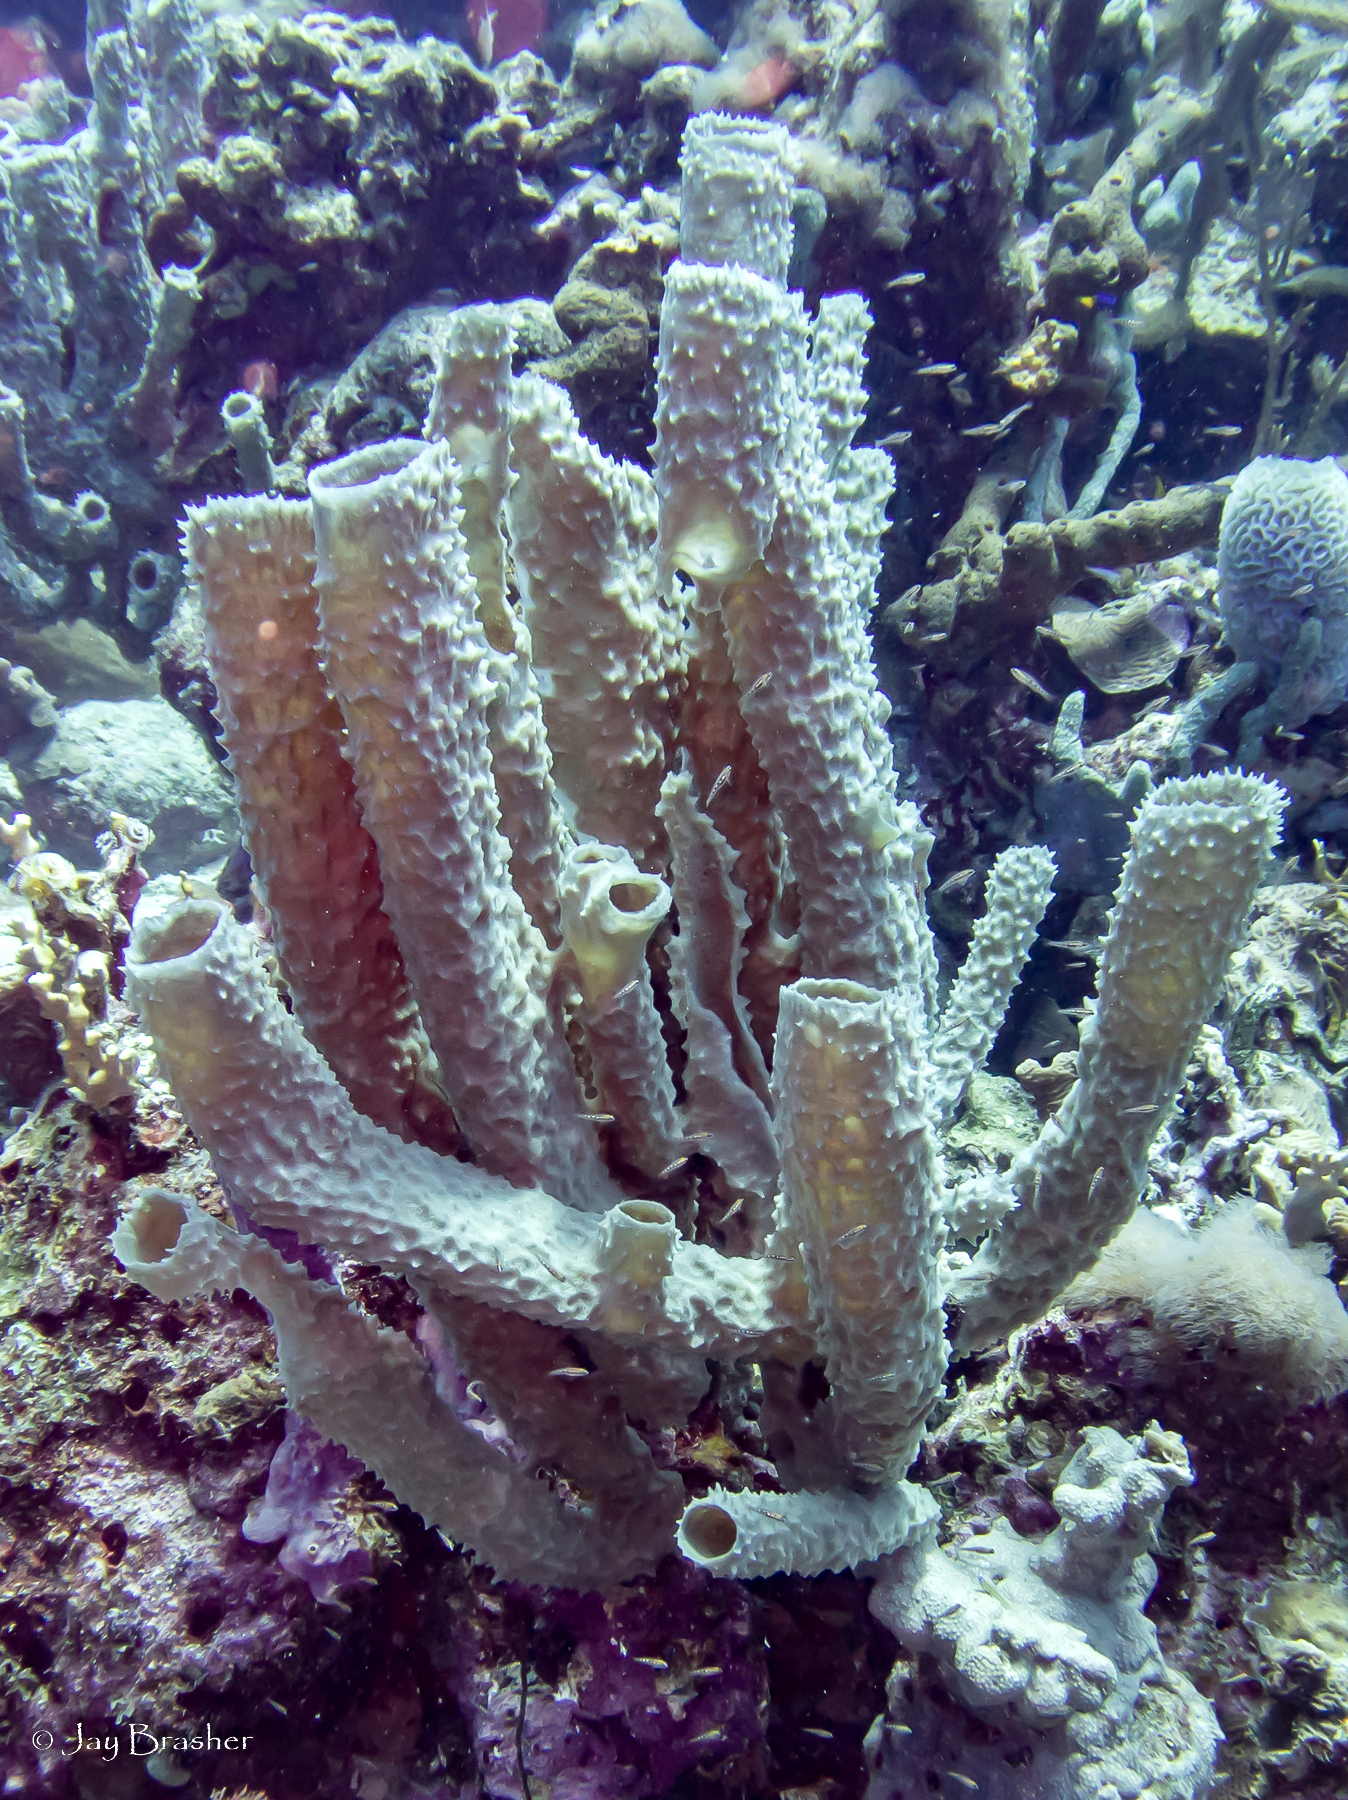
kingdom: Animalia
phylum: Porifera
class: Demospongiae
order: Haplosclerida
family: Callyspongiidae
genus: Callyspongia
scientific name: Callyspongia aculeata
